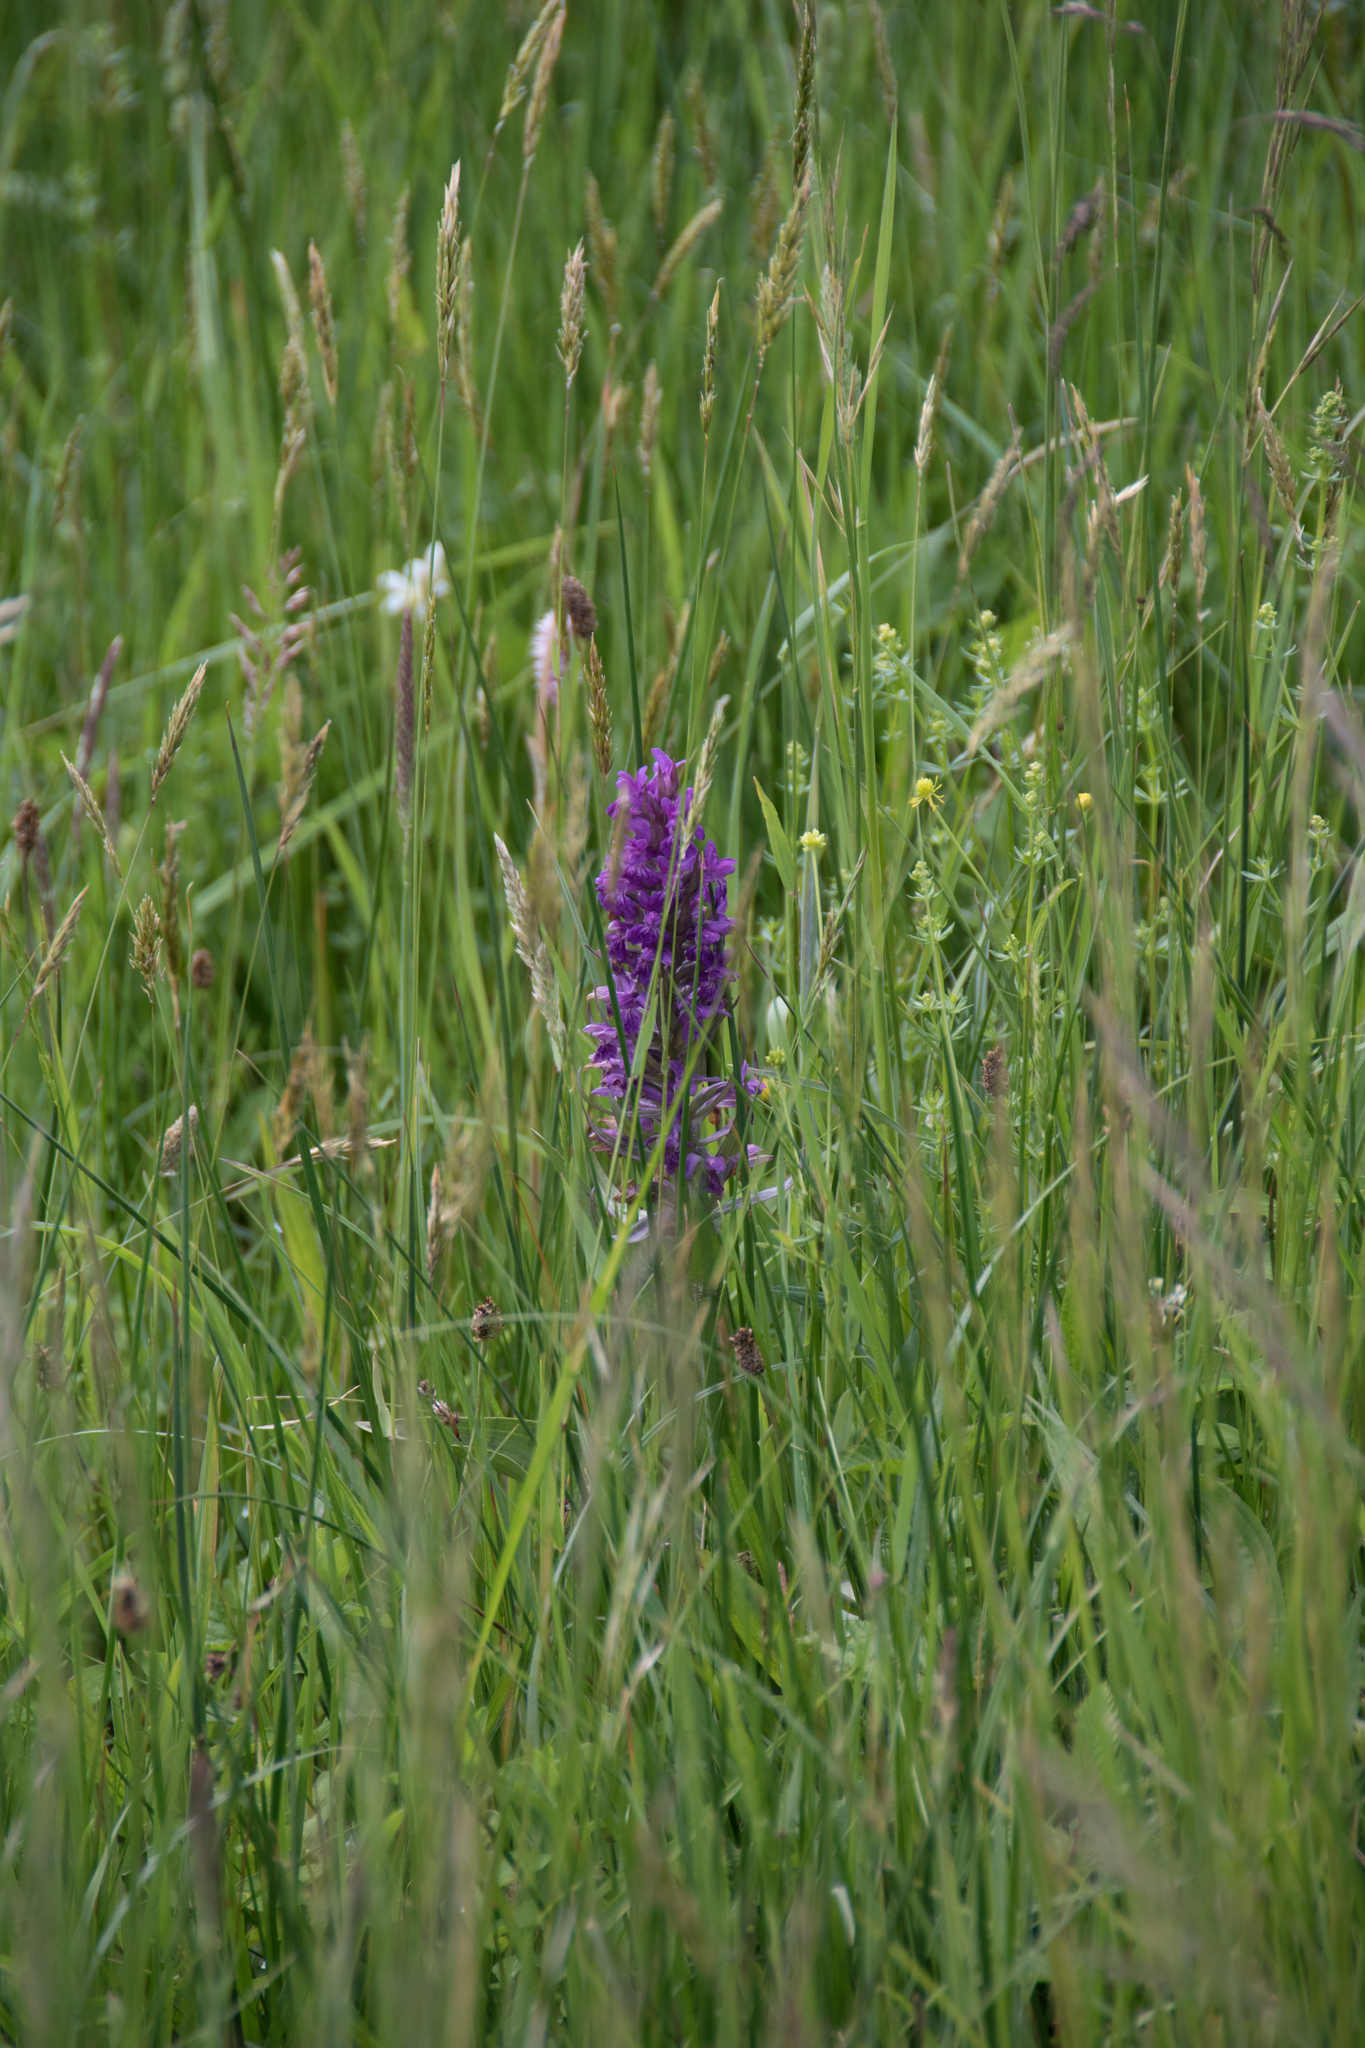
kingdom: Plantae
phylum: Tracheophyta
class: Liliopsida
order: Asparagales
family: Orchidaceae
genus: Dactylorhiza
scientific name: Dactylorhiza majalis
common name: Marsh orchid
